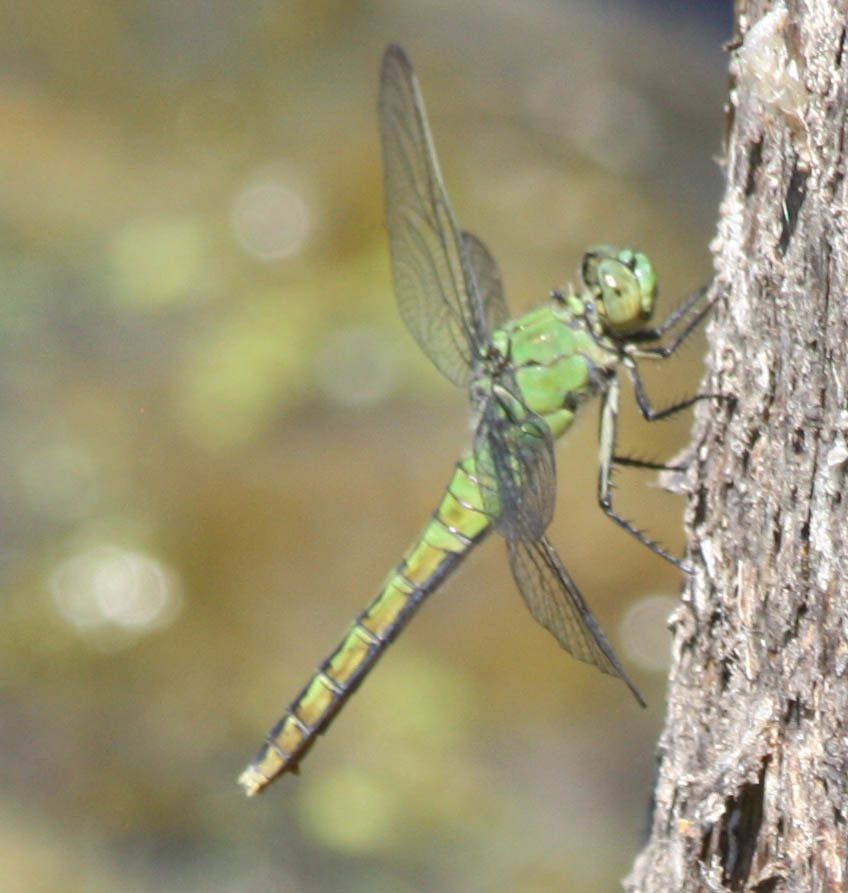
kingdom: Animalia
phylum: Arthropoda
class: Insecta
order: Odonata
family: Libellulidae
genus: Erythemis
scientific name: Erythemis collocata
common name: Western pondhawk
